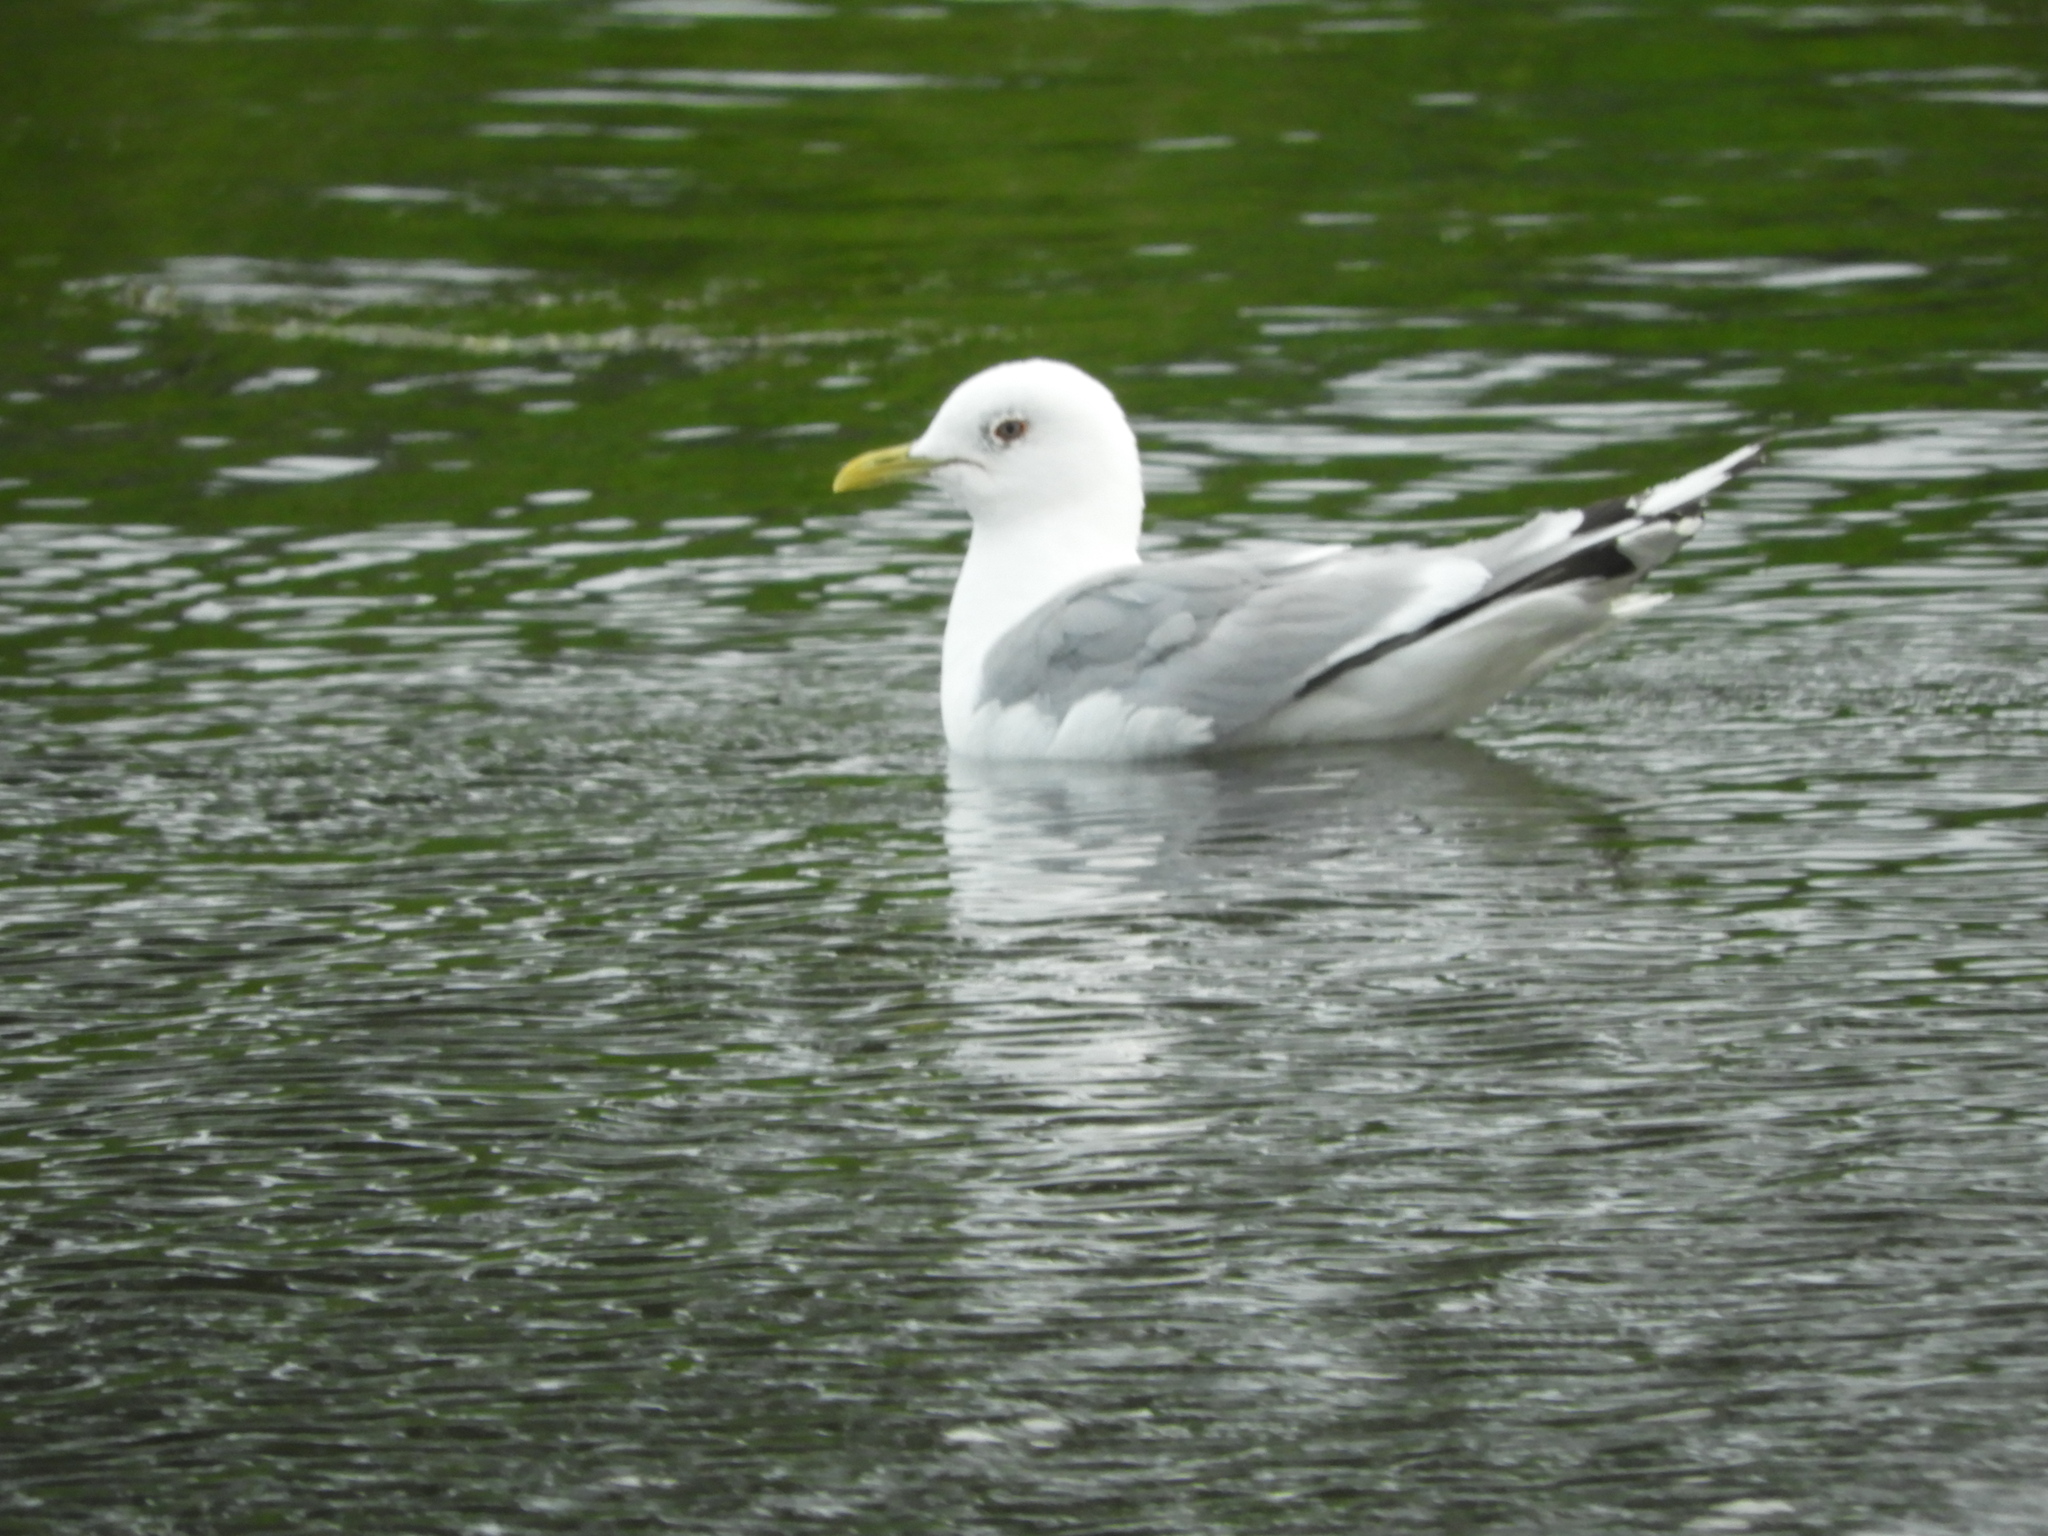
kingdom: Animalia
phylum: Chordata
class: Aves
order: Charadriiformes
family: Laridae
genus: Larus
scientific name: Larus brachyrhynchus
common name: Short-billed gull
